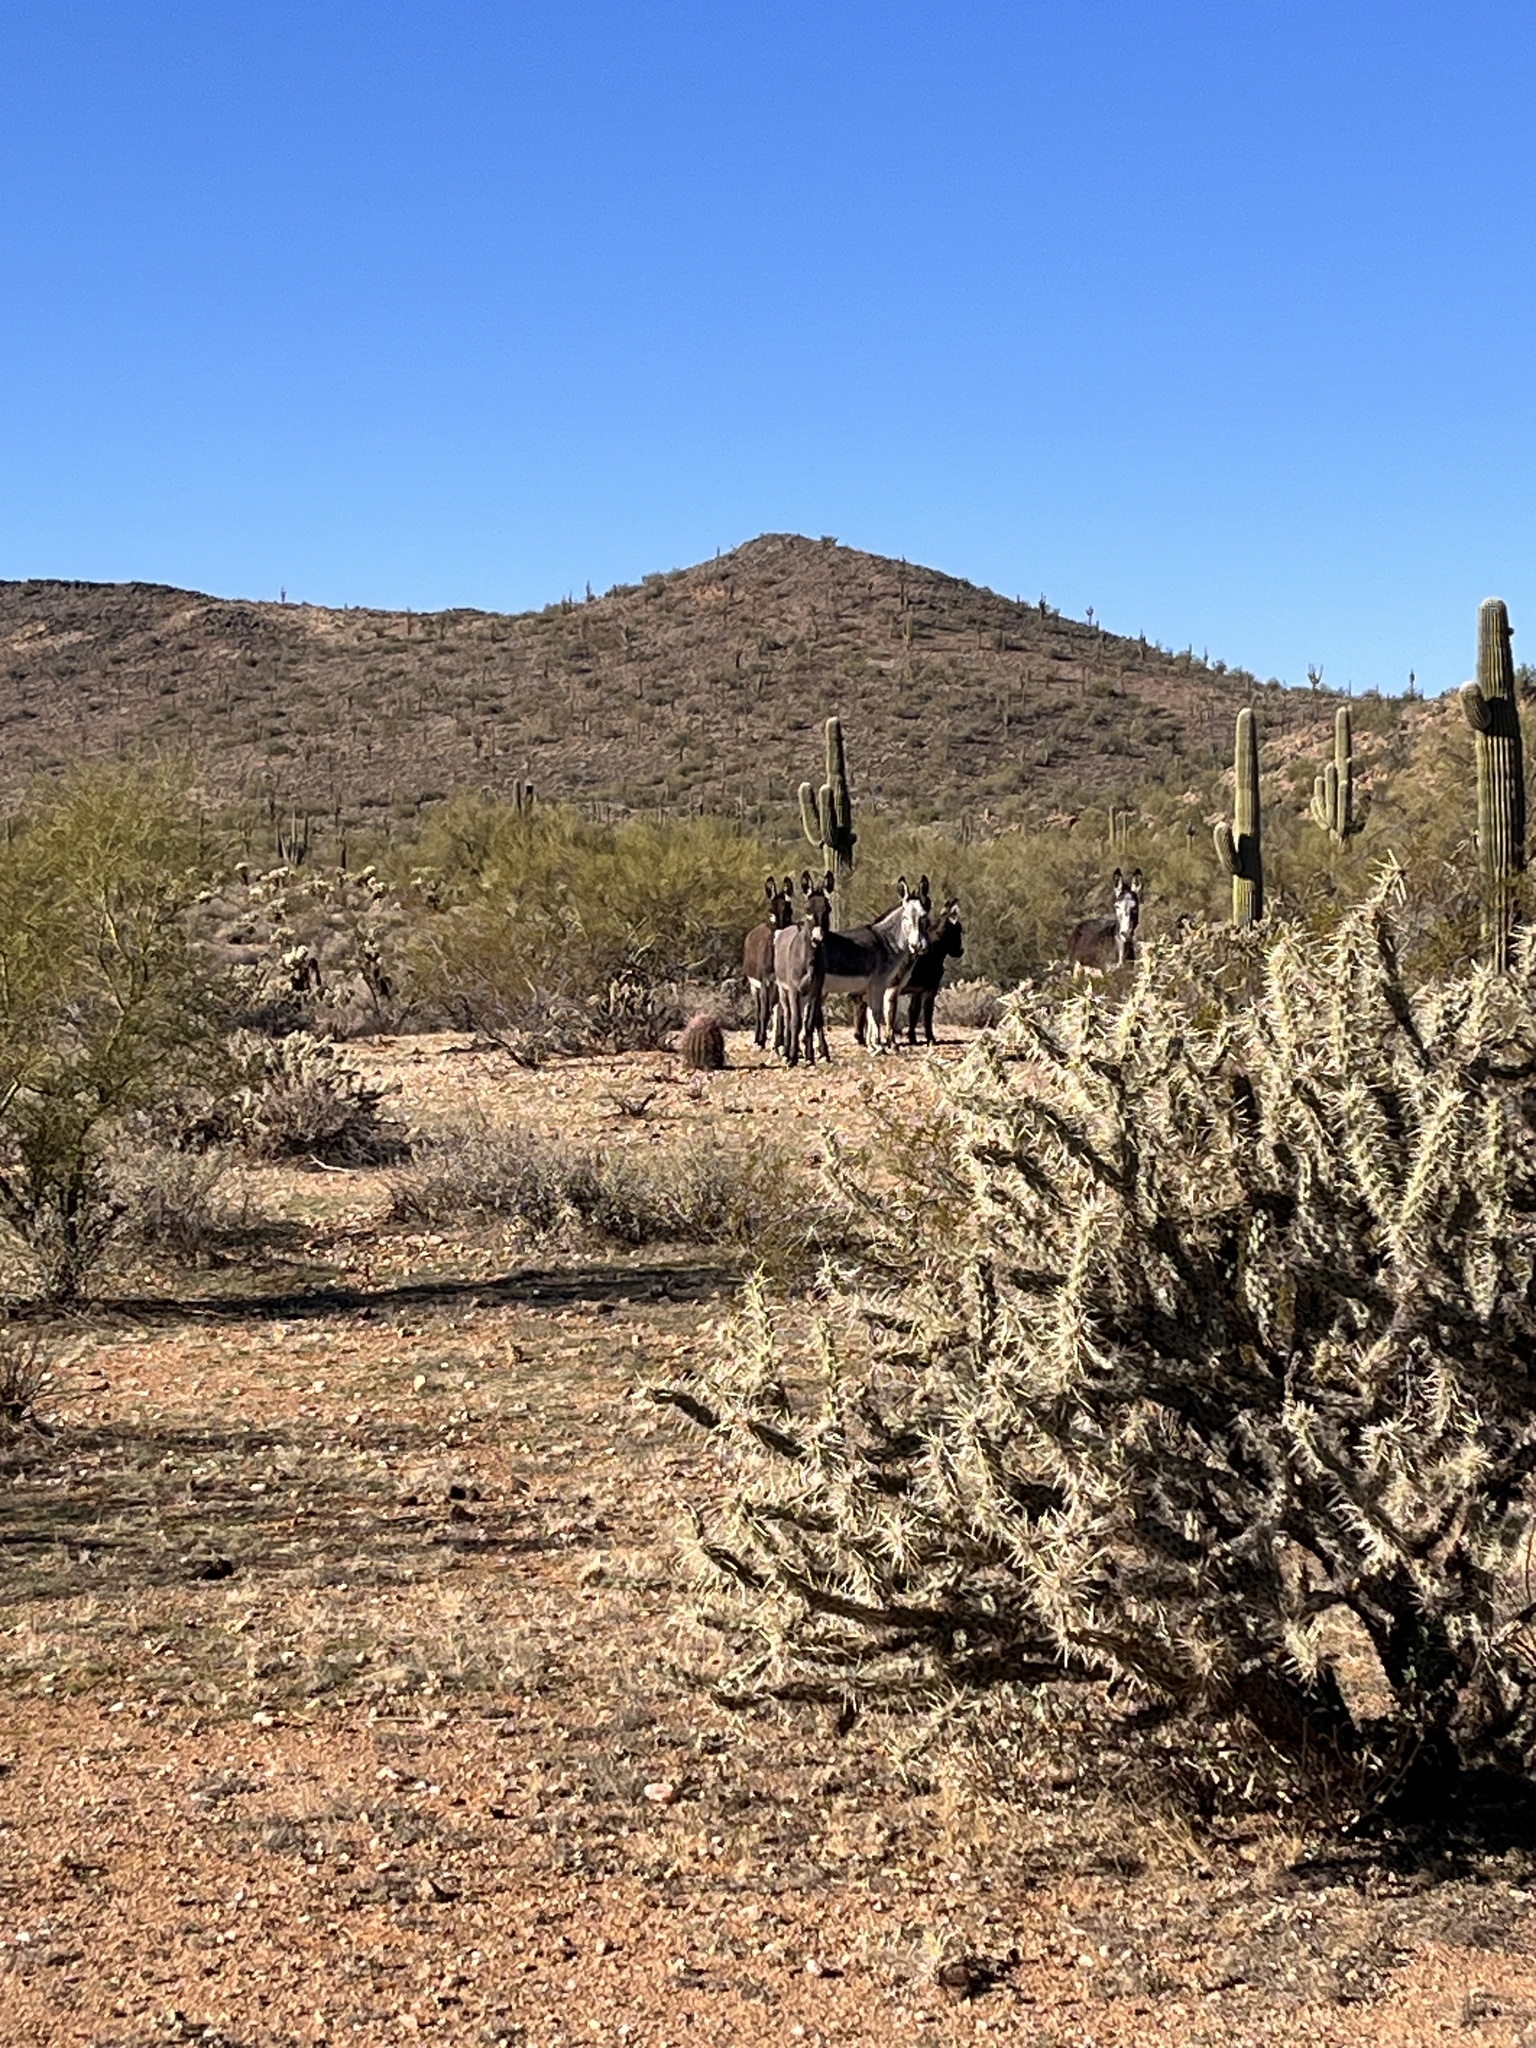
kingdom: Animalia
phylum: Chordata
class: Mammalia
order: Perissodactyla
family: Equidae
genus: Equus
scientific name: Equus asinus
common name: Ass
